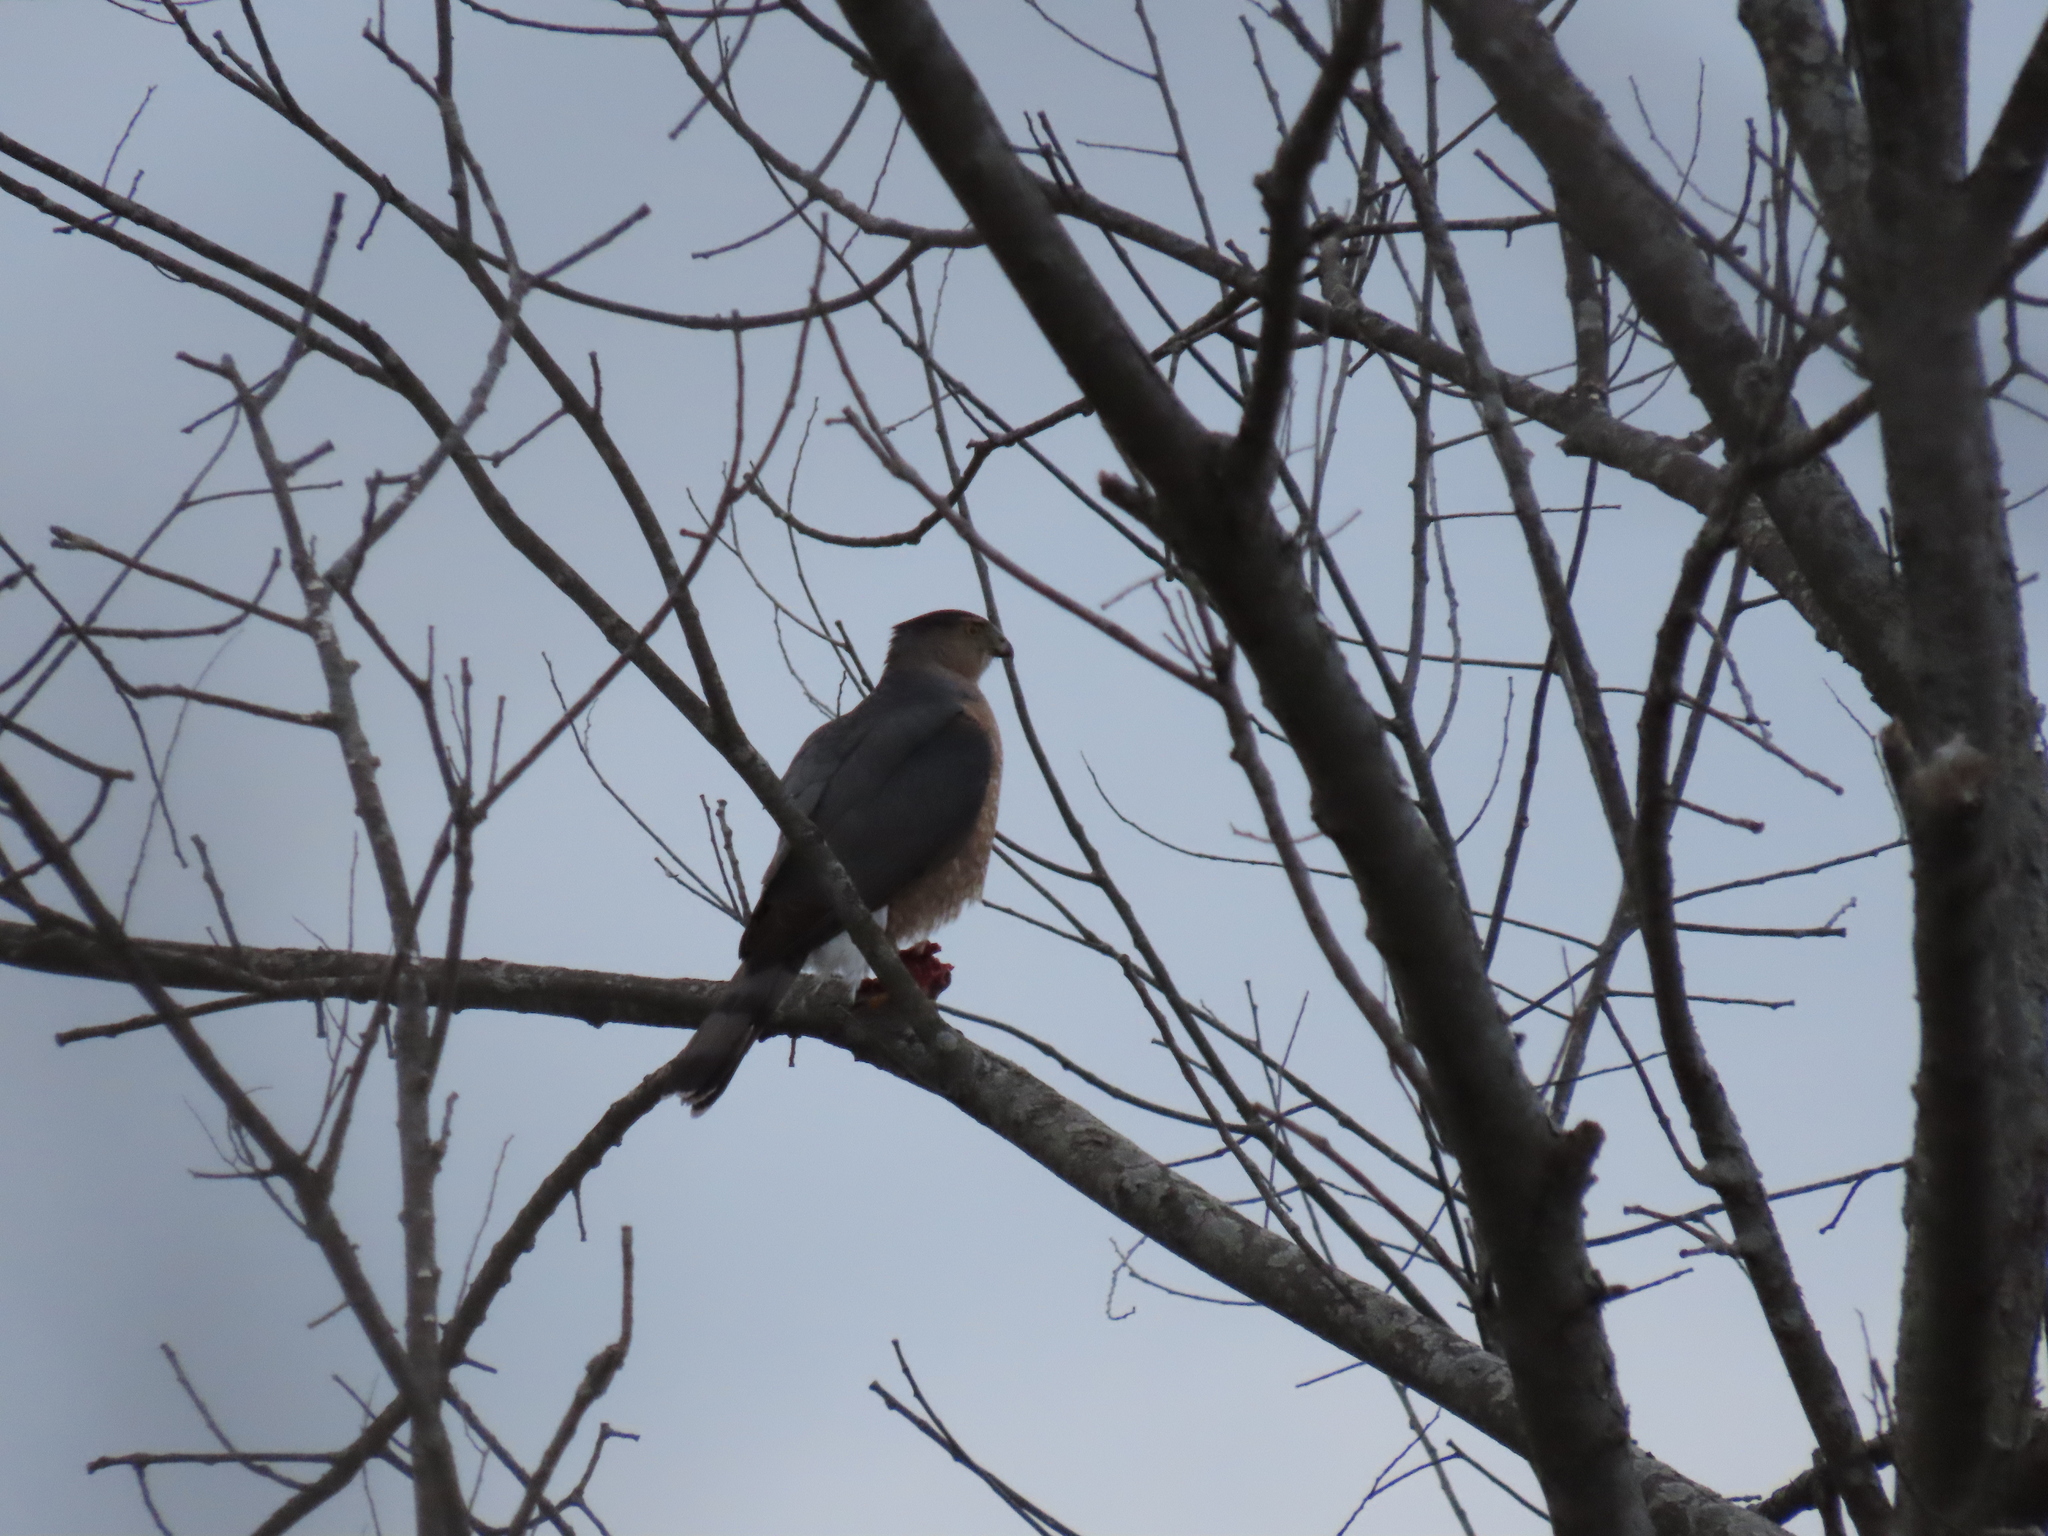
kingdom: Animalia
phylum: Chordata
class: Aves
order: Accipitriformes
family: Accipitridae
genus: Accipiter
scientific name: Accipiter cooperii
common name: Cooper's hawk
